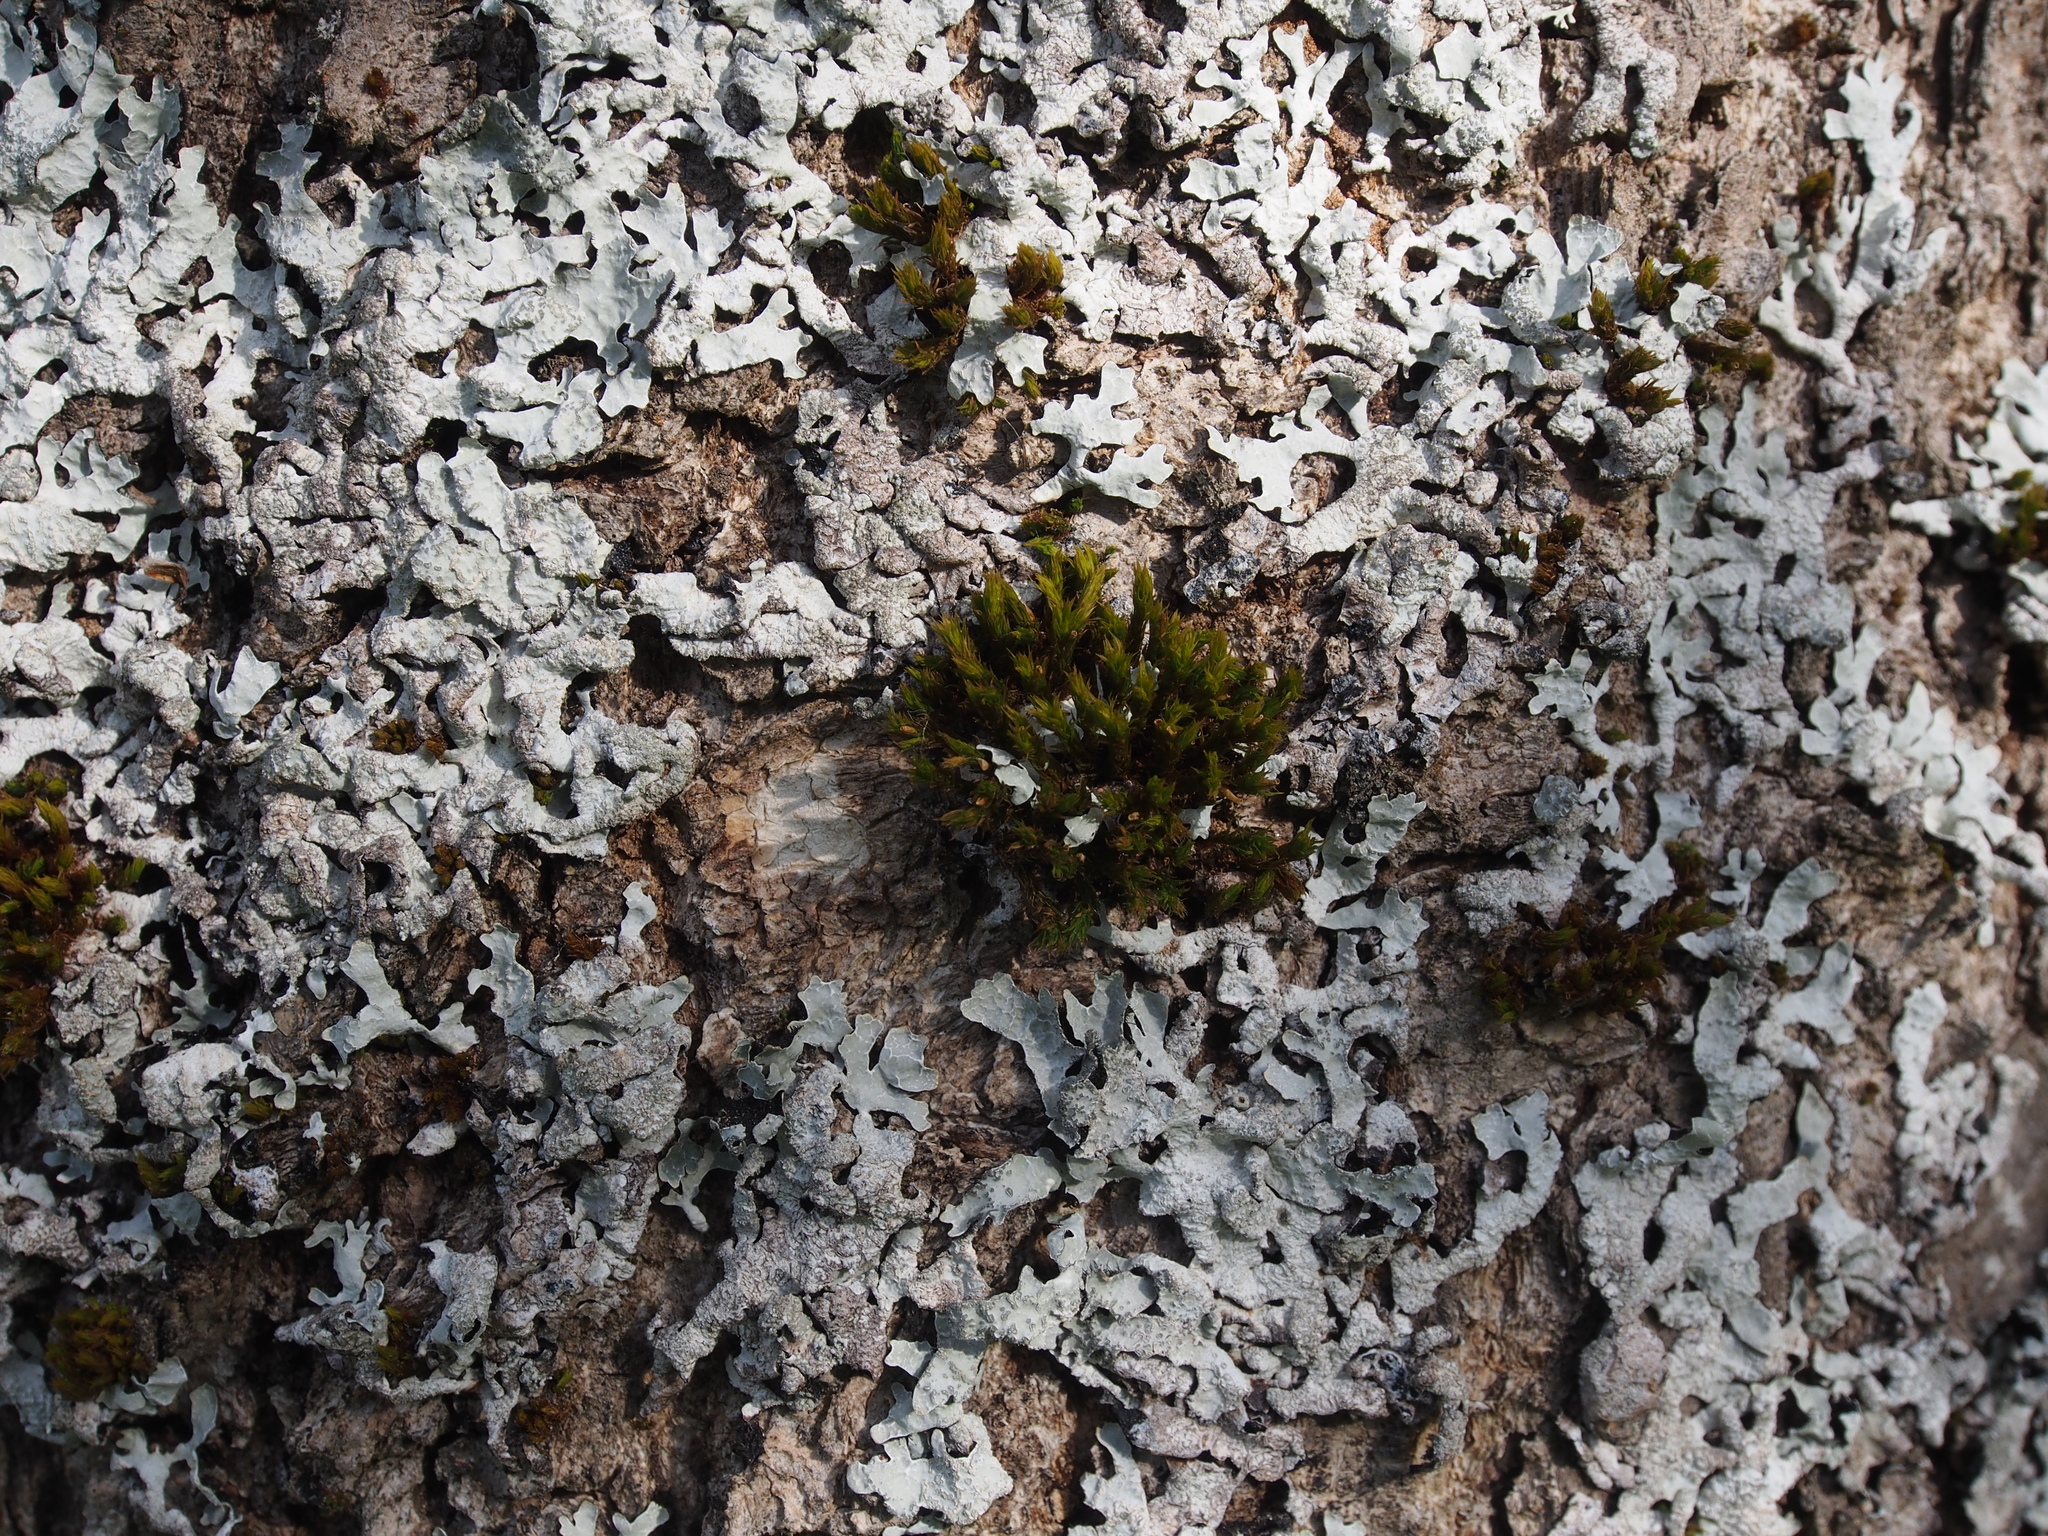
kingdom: Fungi
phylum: Ascomycota
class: Lecanoromycetes
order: Lecanorales
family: Parmeliaceae
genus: Parmelia
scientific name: Parmelia sulcata
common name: Netted shield lichen
